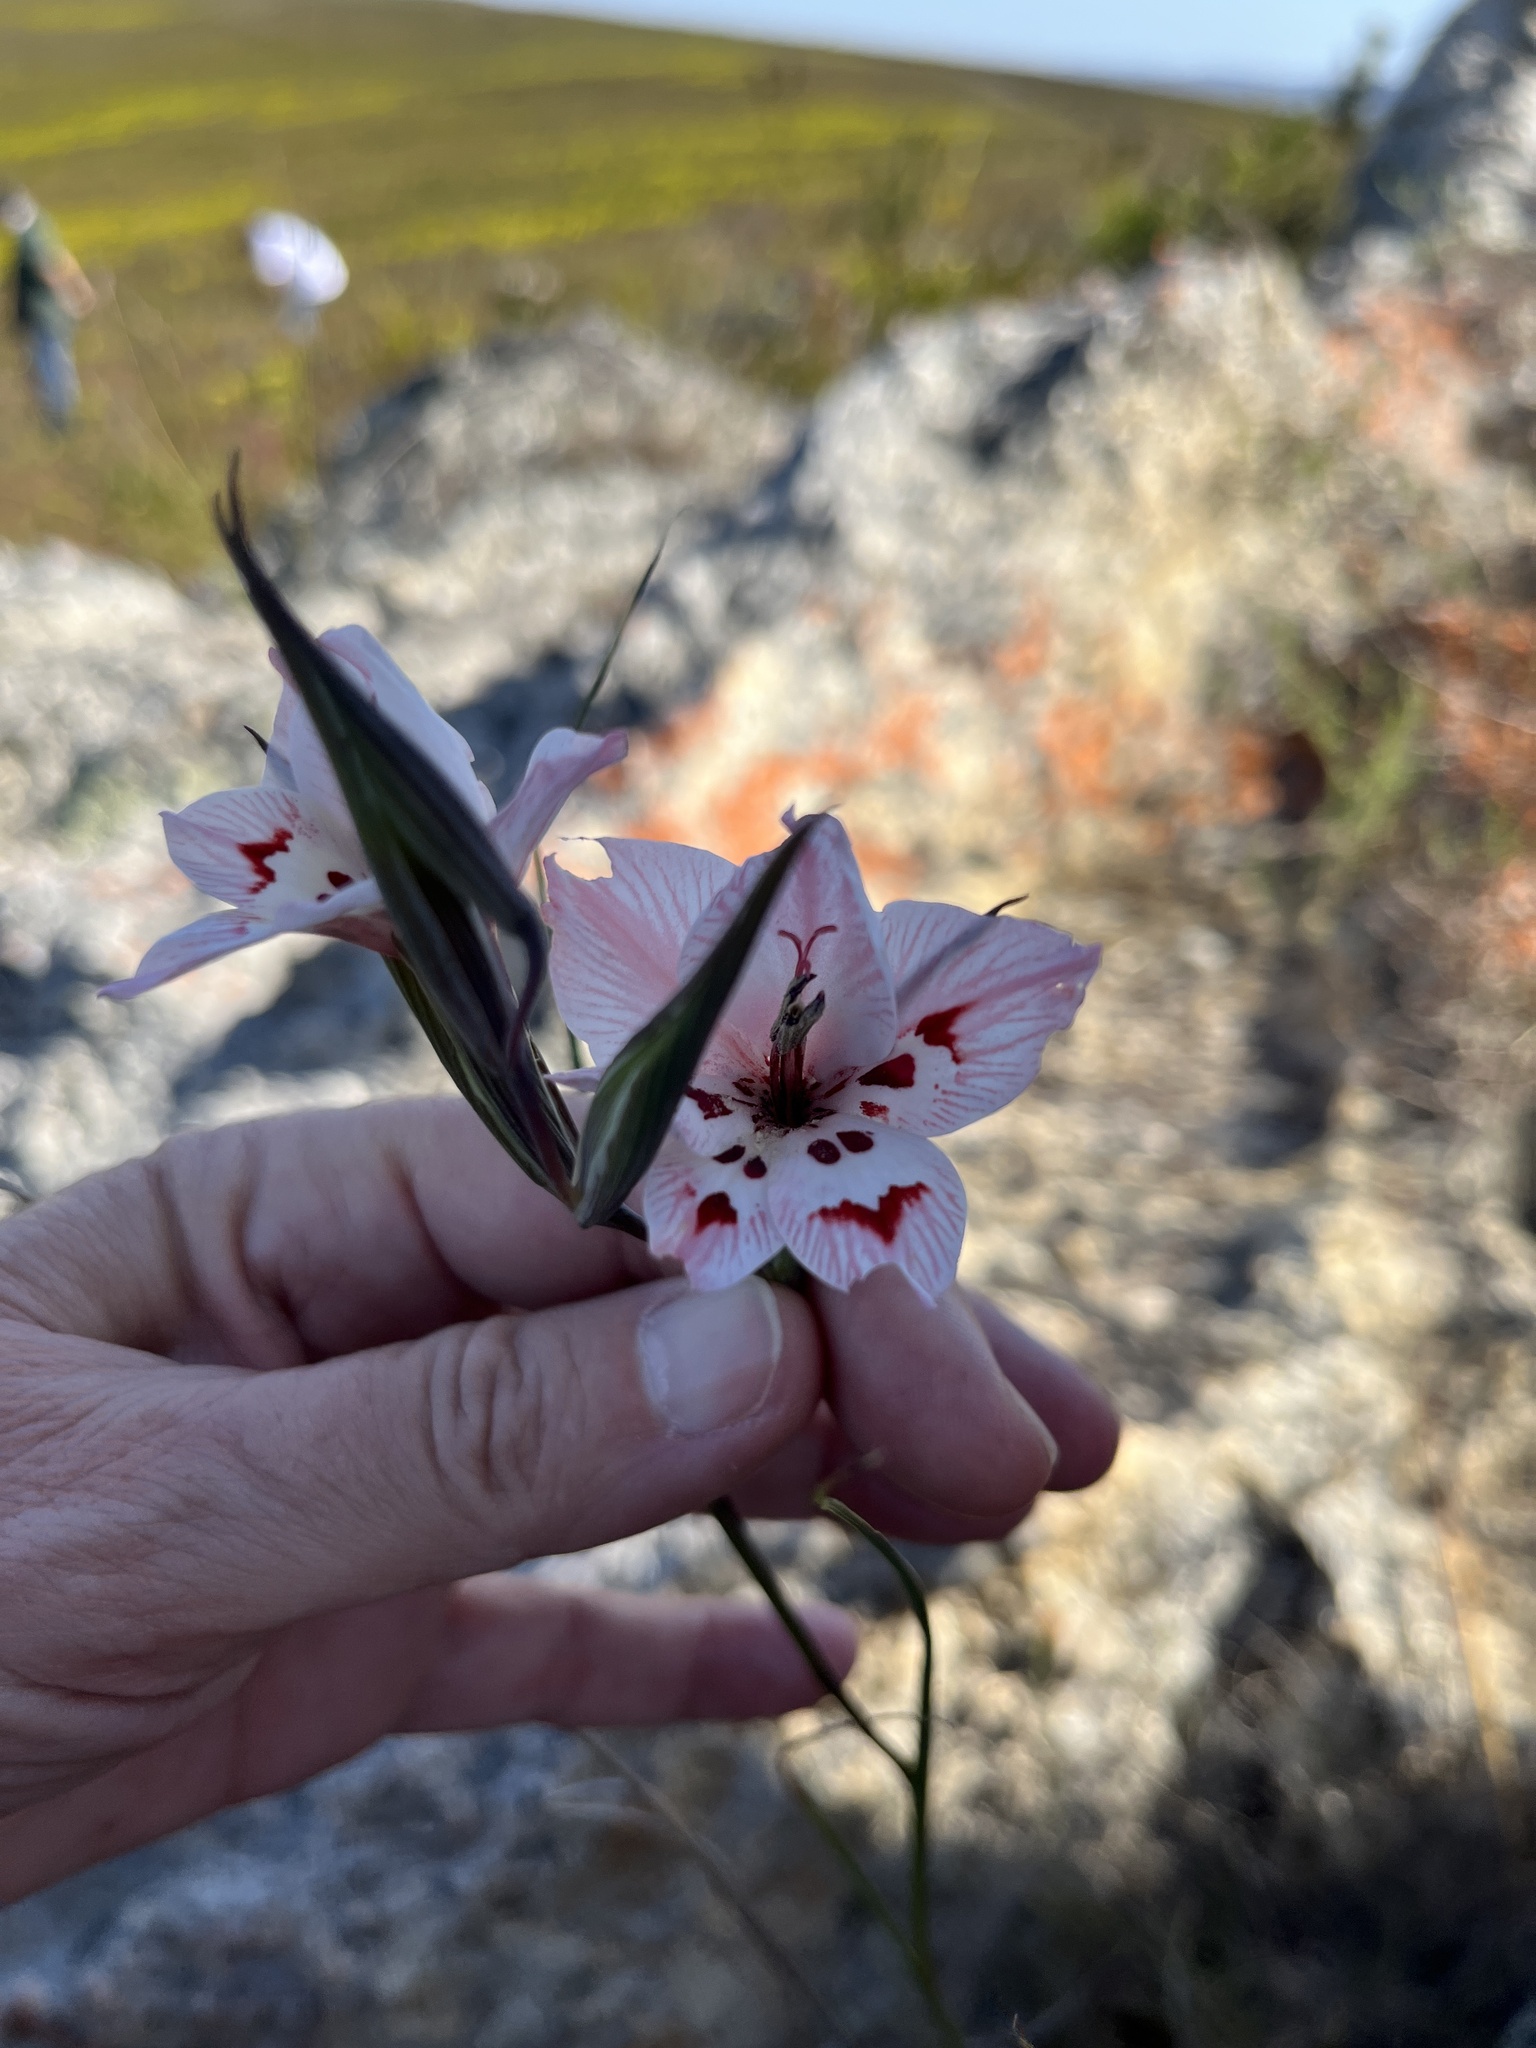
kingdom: Plantae
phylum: Tracheophyta
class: Liliopsida
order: Asparagales
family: Iridaceae
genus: Gladiolus
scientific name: Gladiolus debilis
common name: Painted-lady
